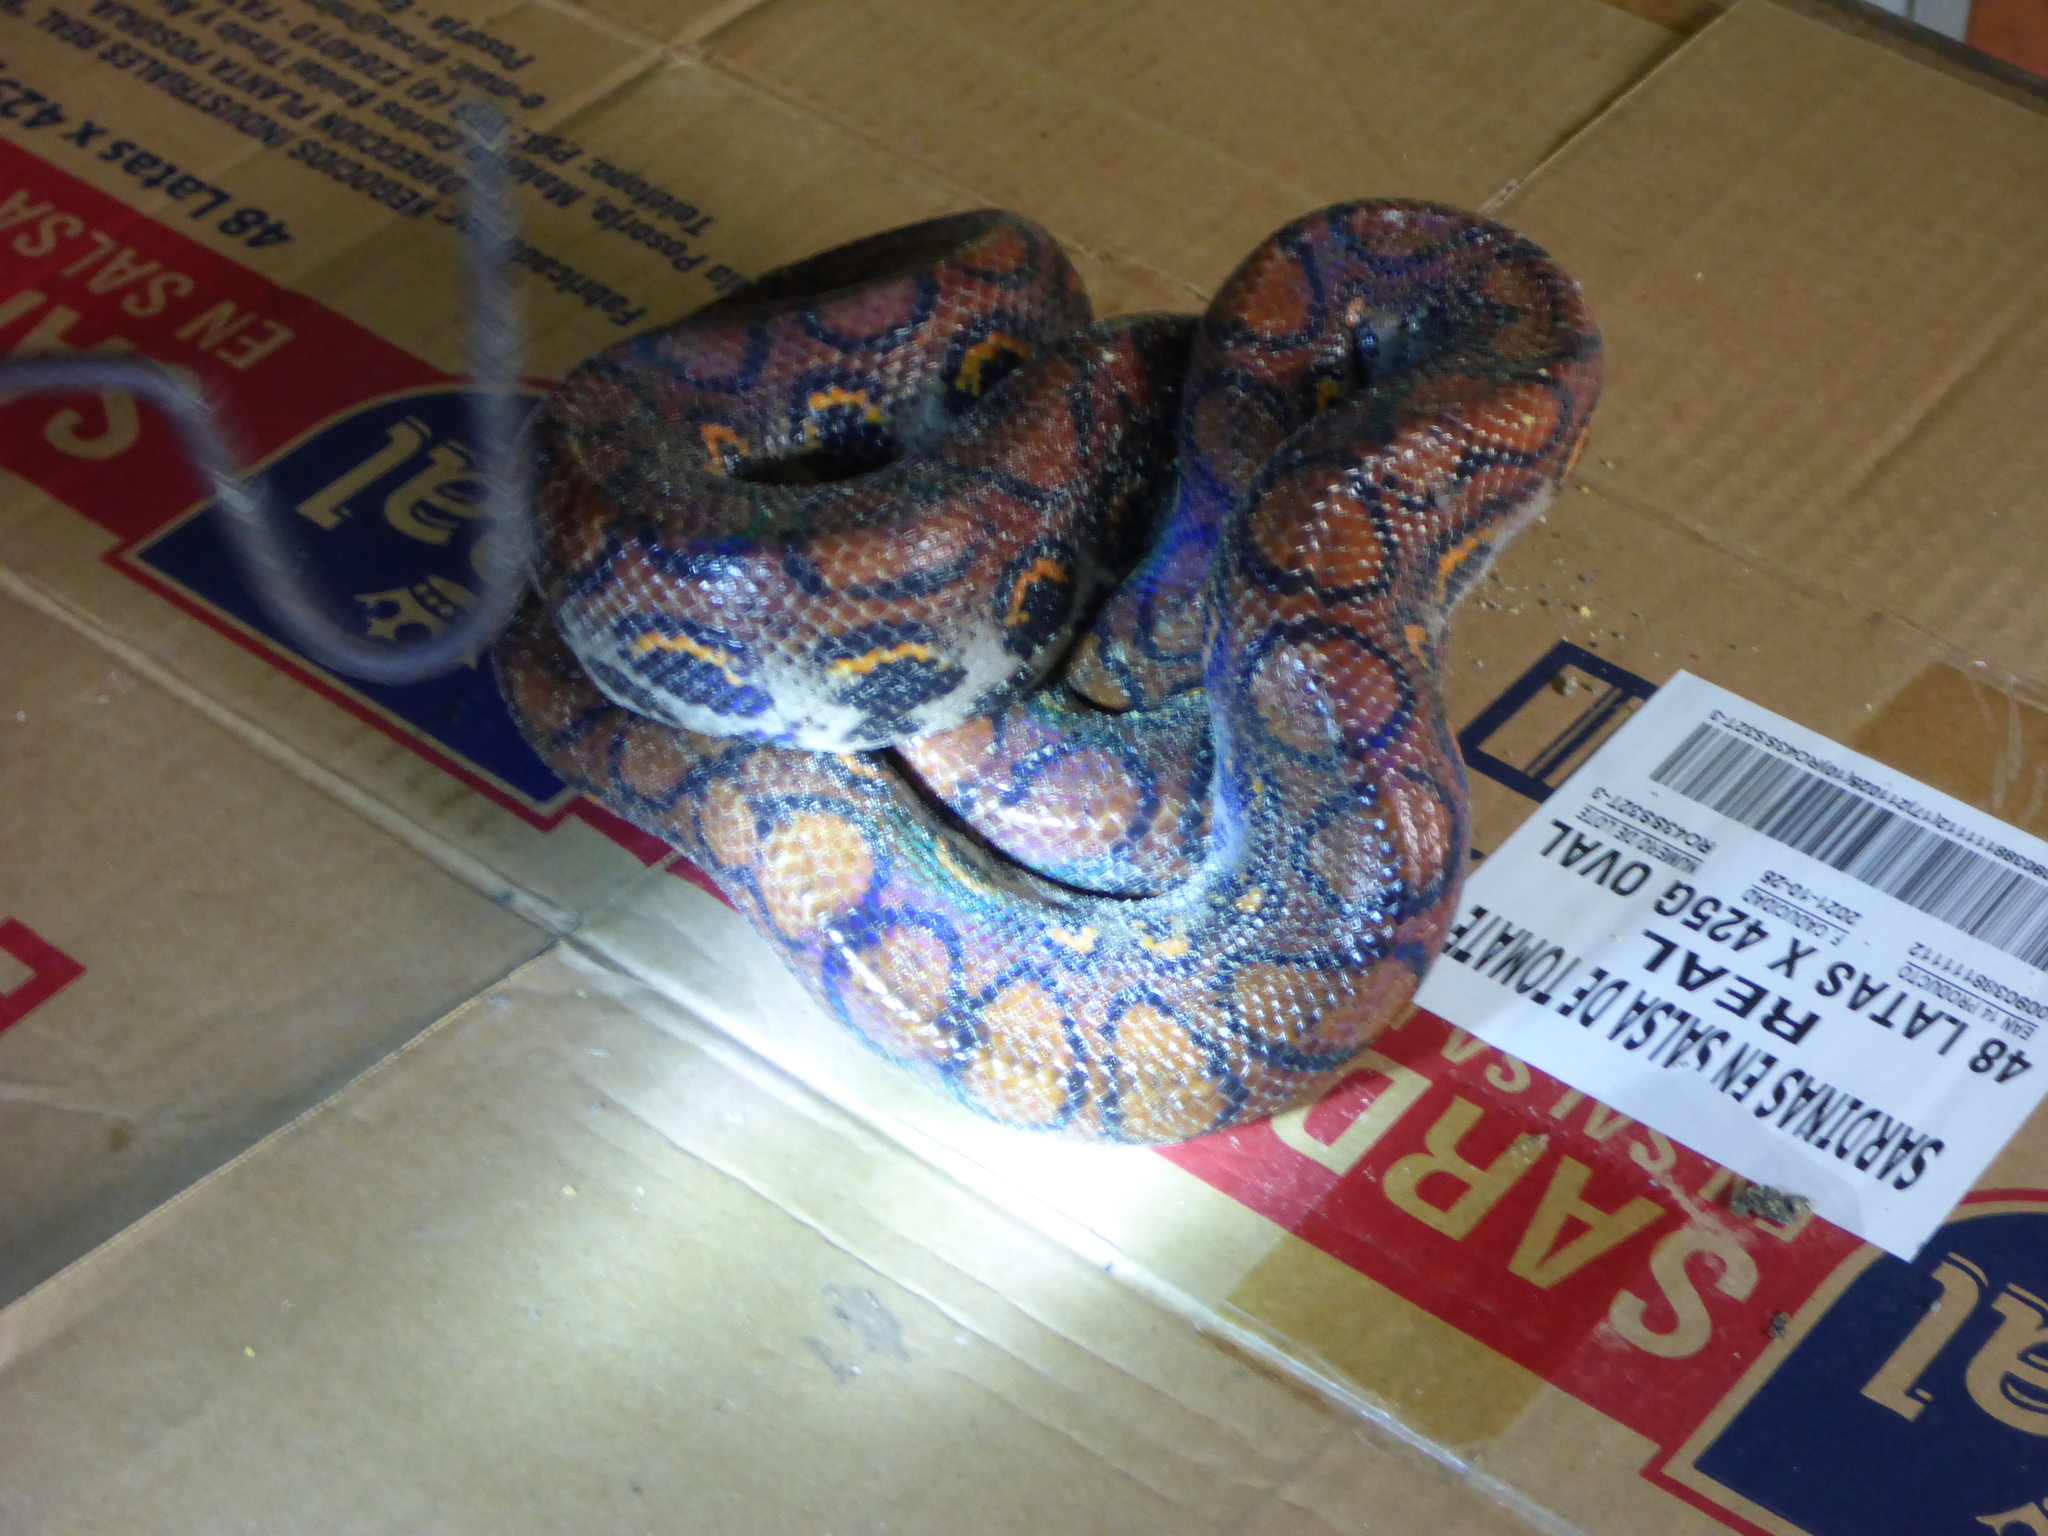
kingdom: Animalia
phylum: Chordata
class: Squamata
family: Boidae
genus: Epicrates
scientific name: Epicrates cenchria
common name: Rainbow boa
